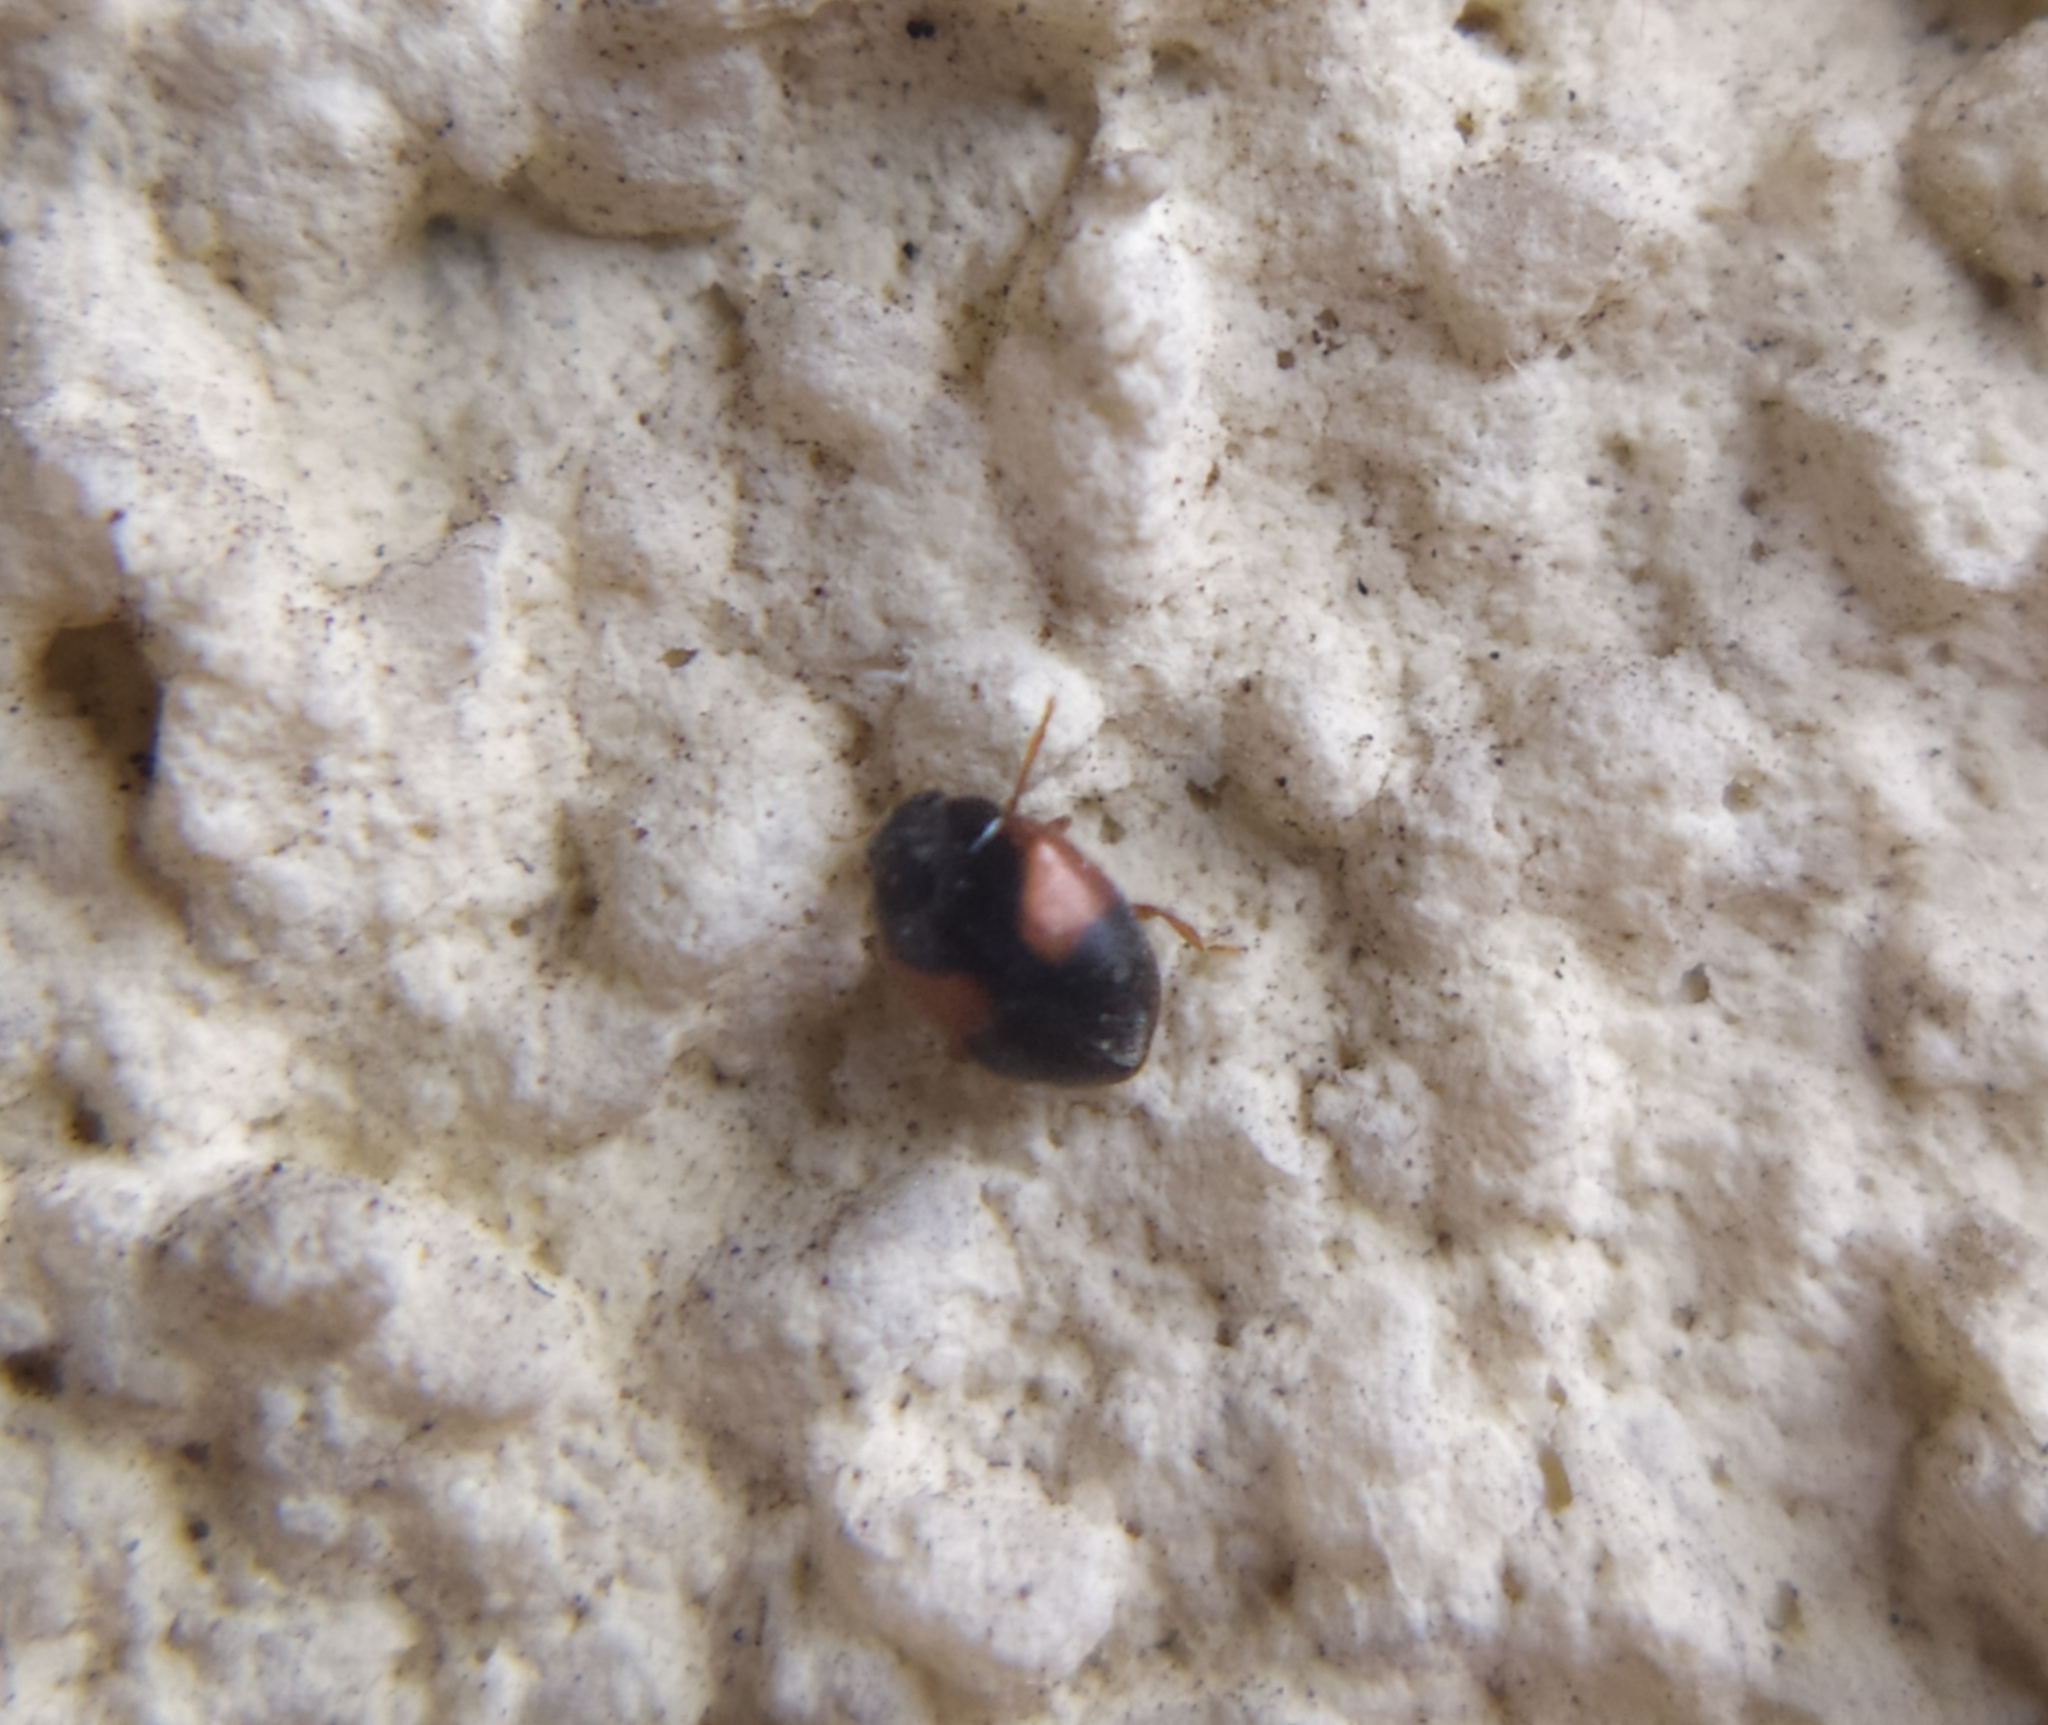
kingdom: Animalia
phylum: Arthropoda
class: Insecta
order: Coleoptera
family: Coccinellidae
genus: Scymnus
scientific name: Scymnus interruptus
